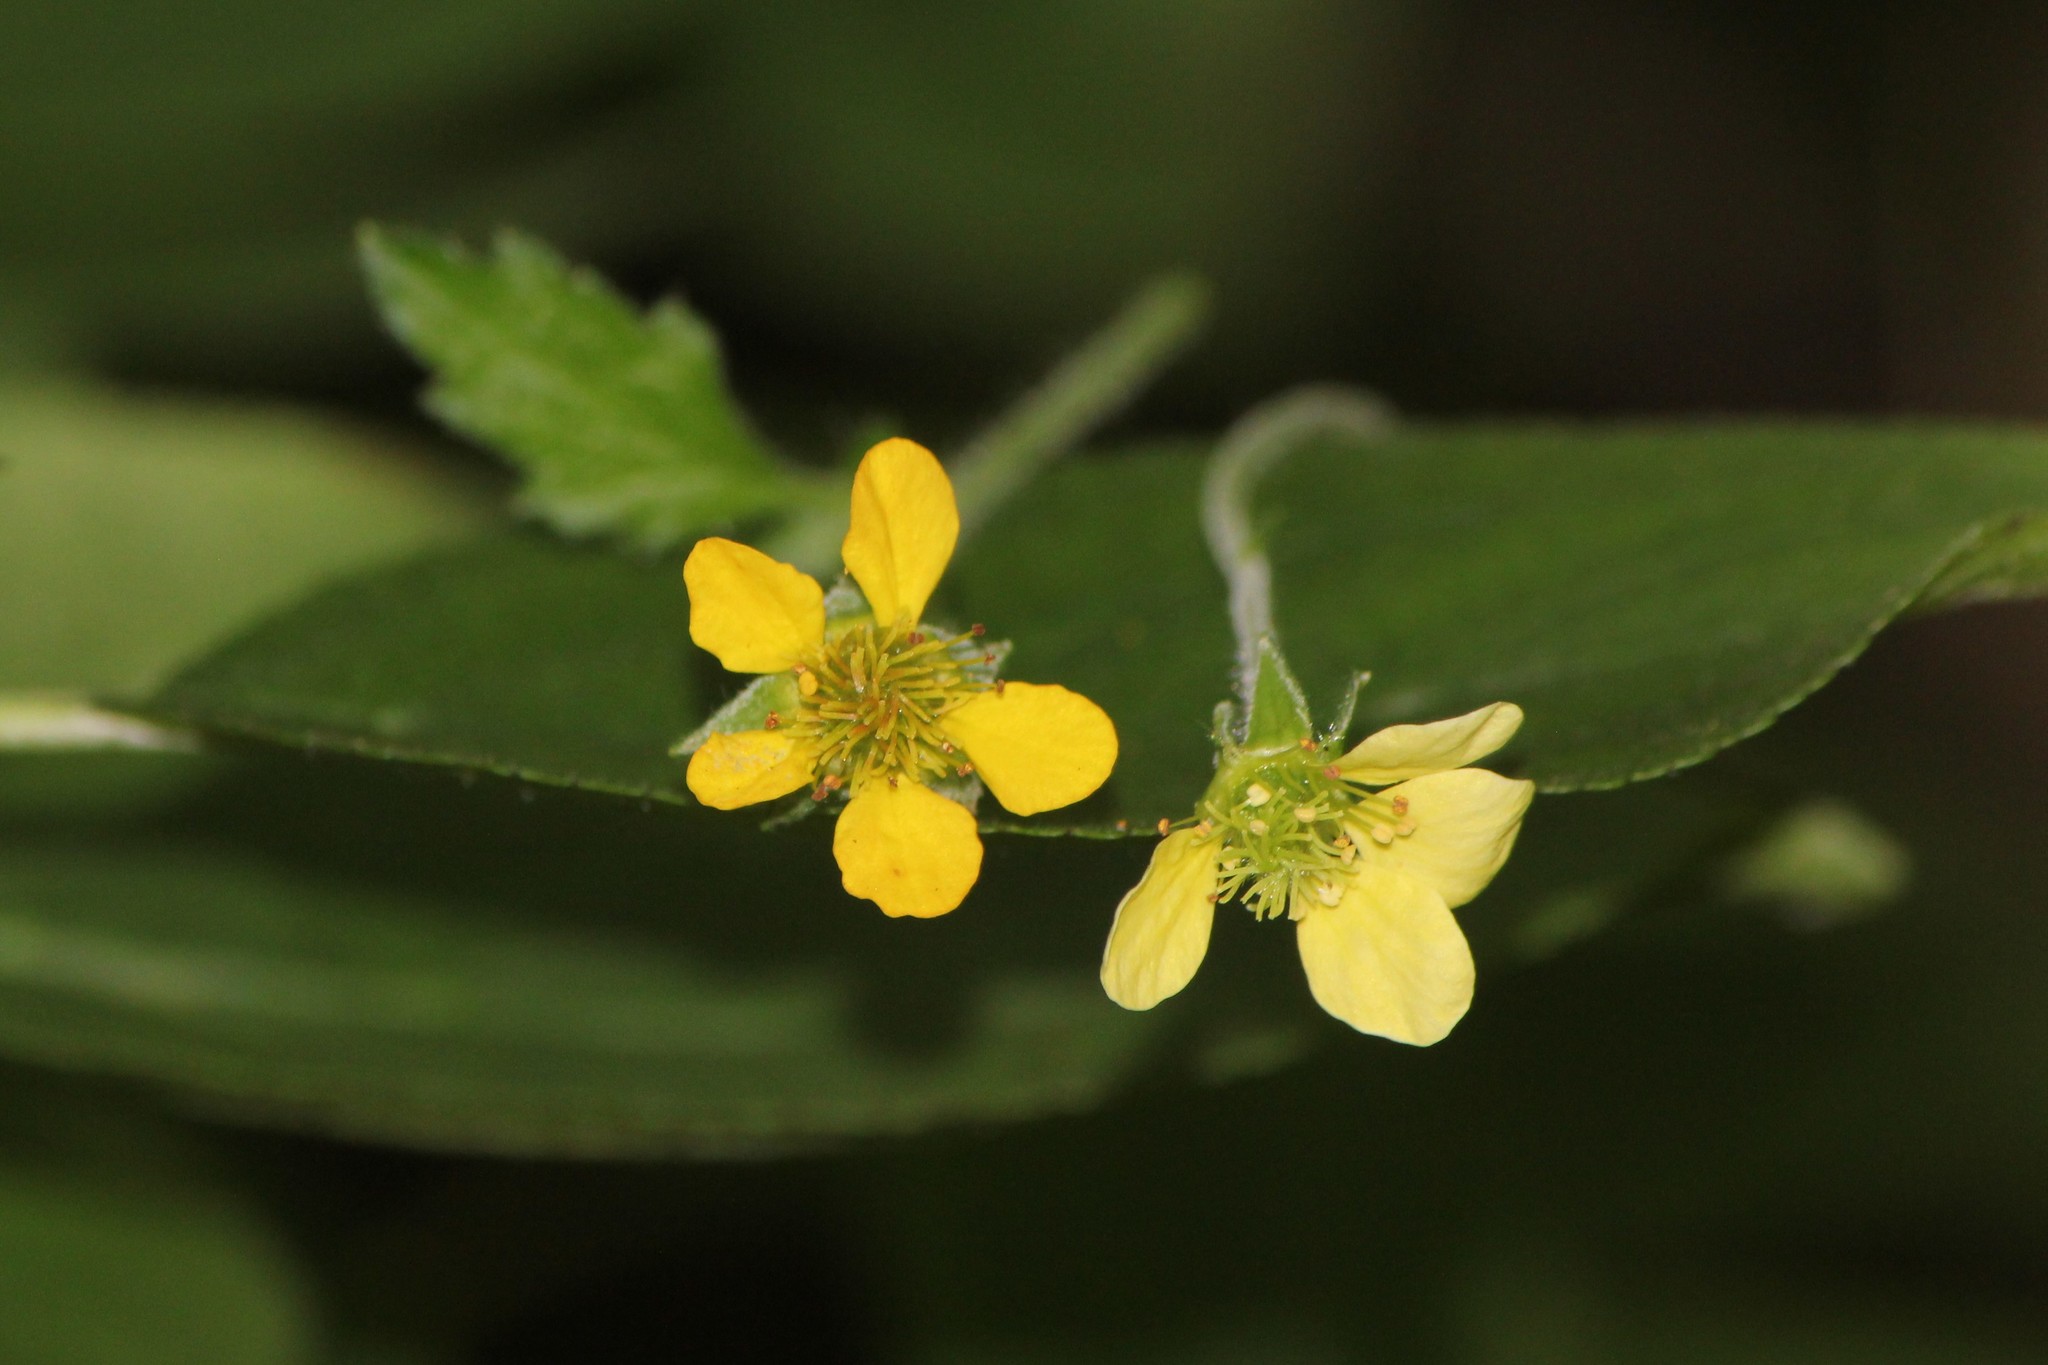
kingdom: Plantae
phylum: Tracheophyta
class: Magnoliopsida
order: Rosales
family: Rosaceae
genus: Geum
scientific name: Geum urbanum
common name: Wood avens
